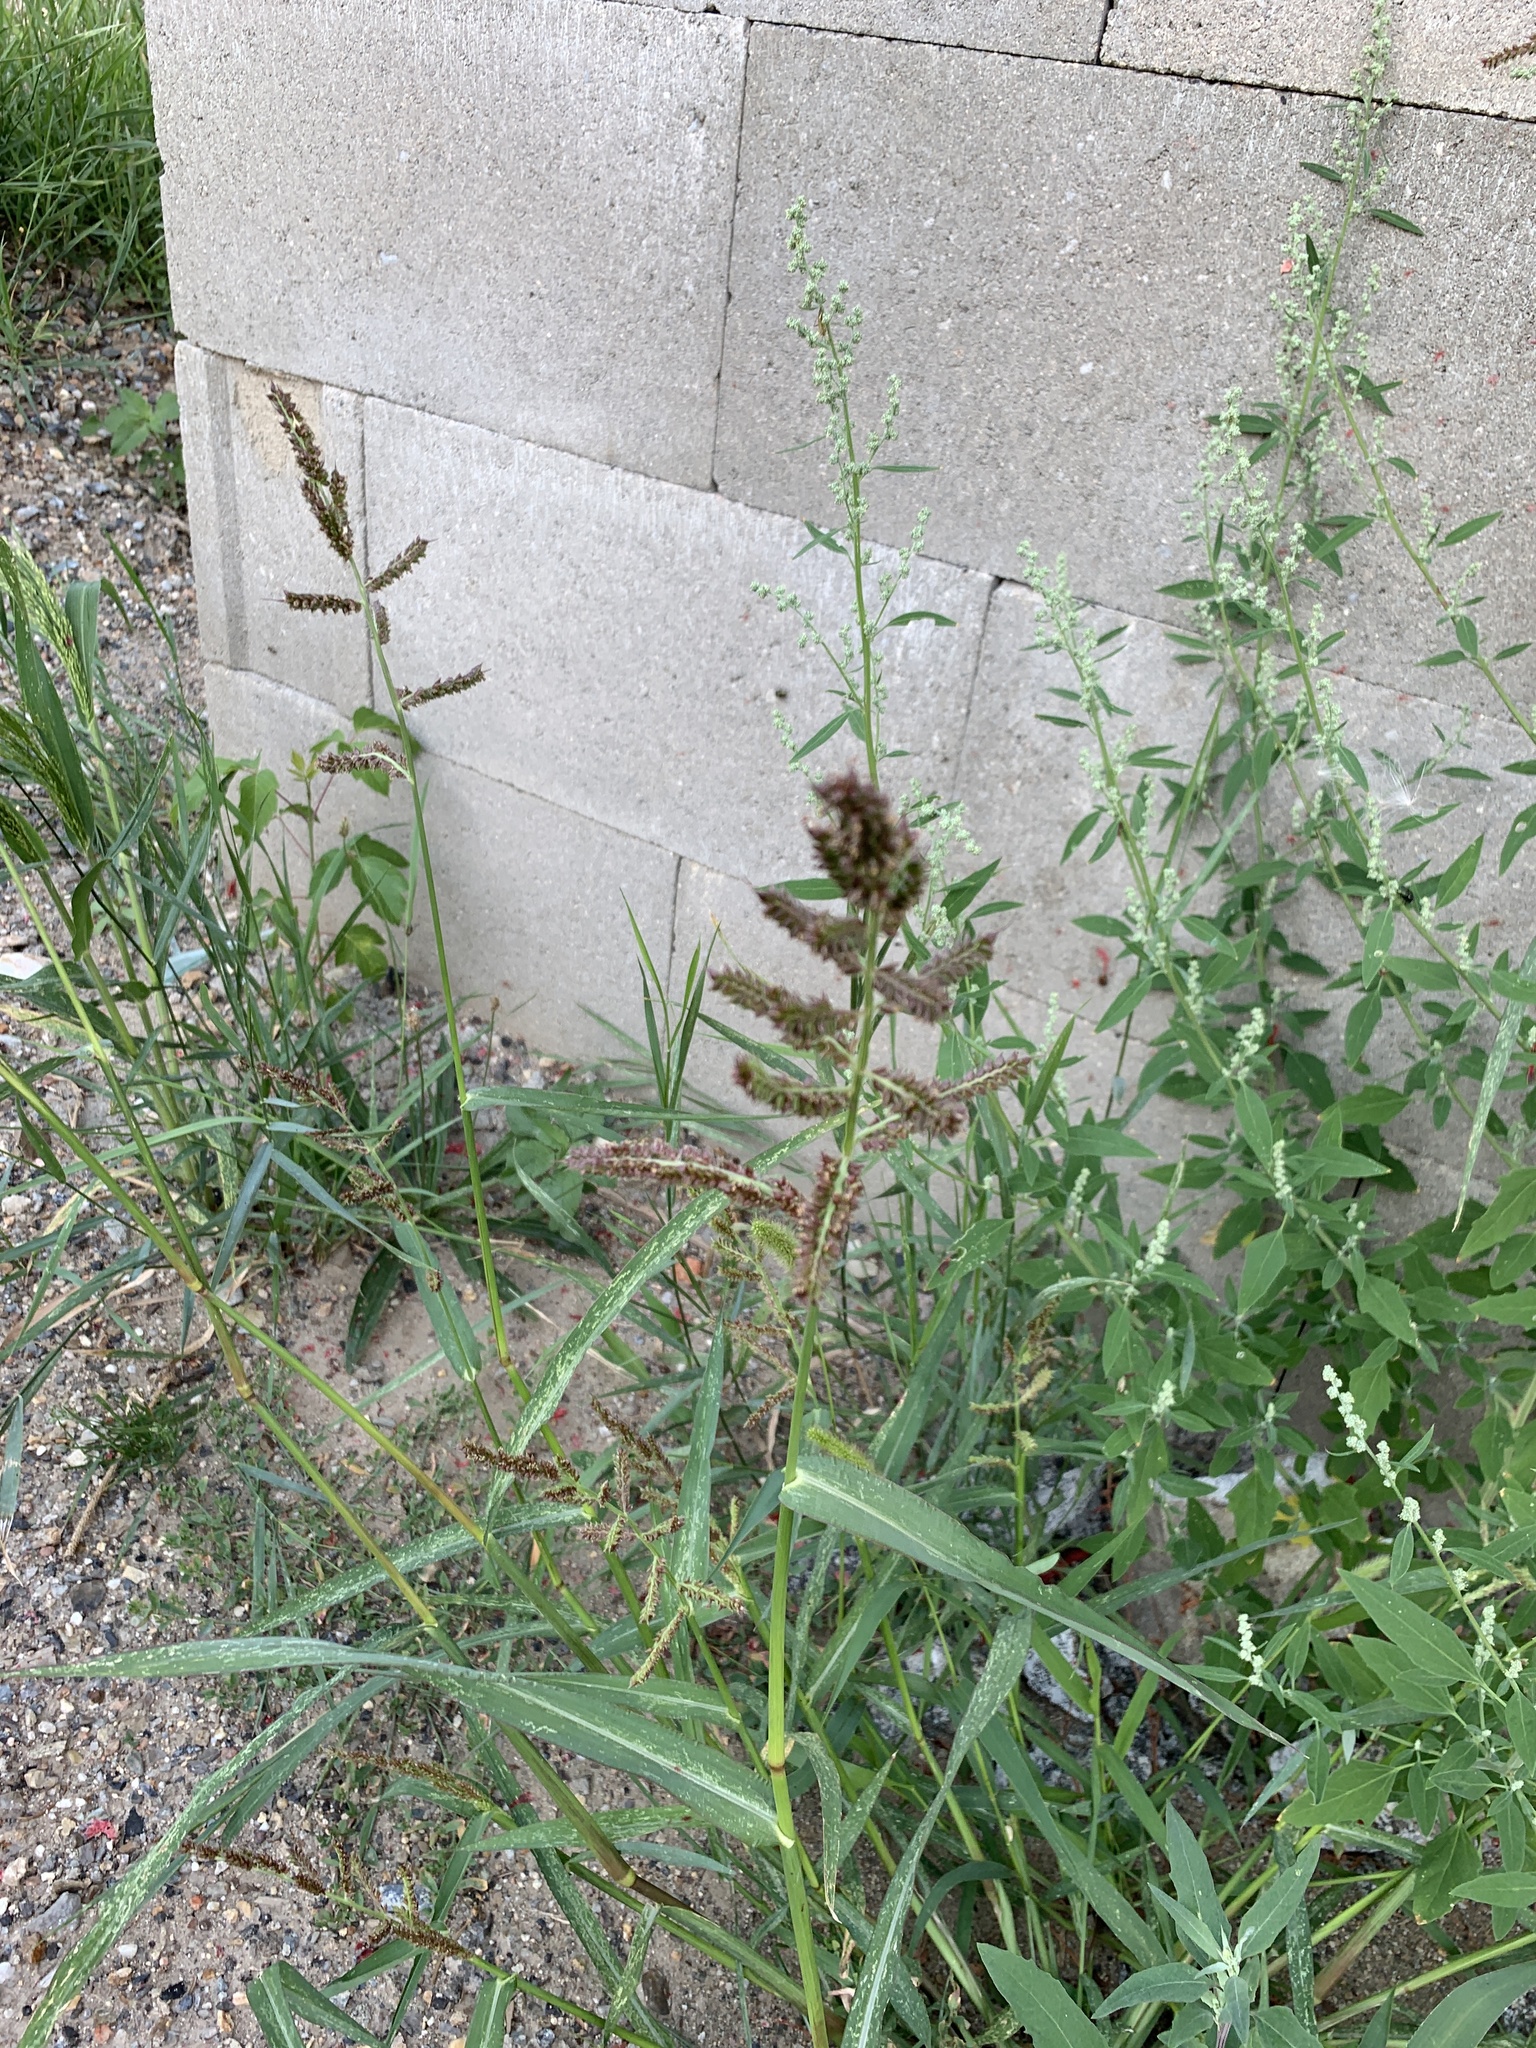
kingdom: Plantae
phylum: Tracheophyta
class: Liliopsida
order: Poales
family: Poaceae
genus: Echinochloa
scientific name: Echinochloa crus-galli
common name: Cockspur
